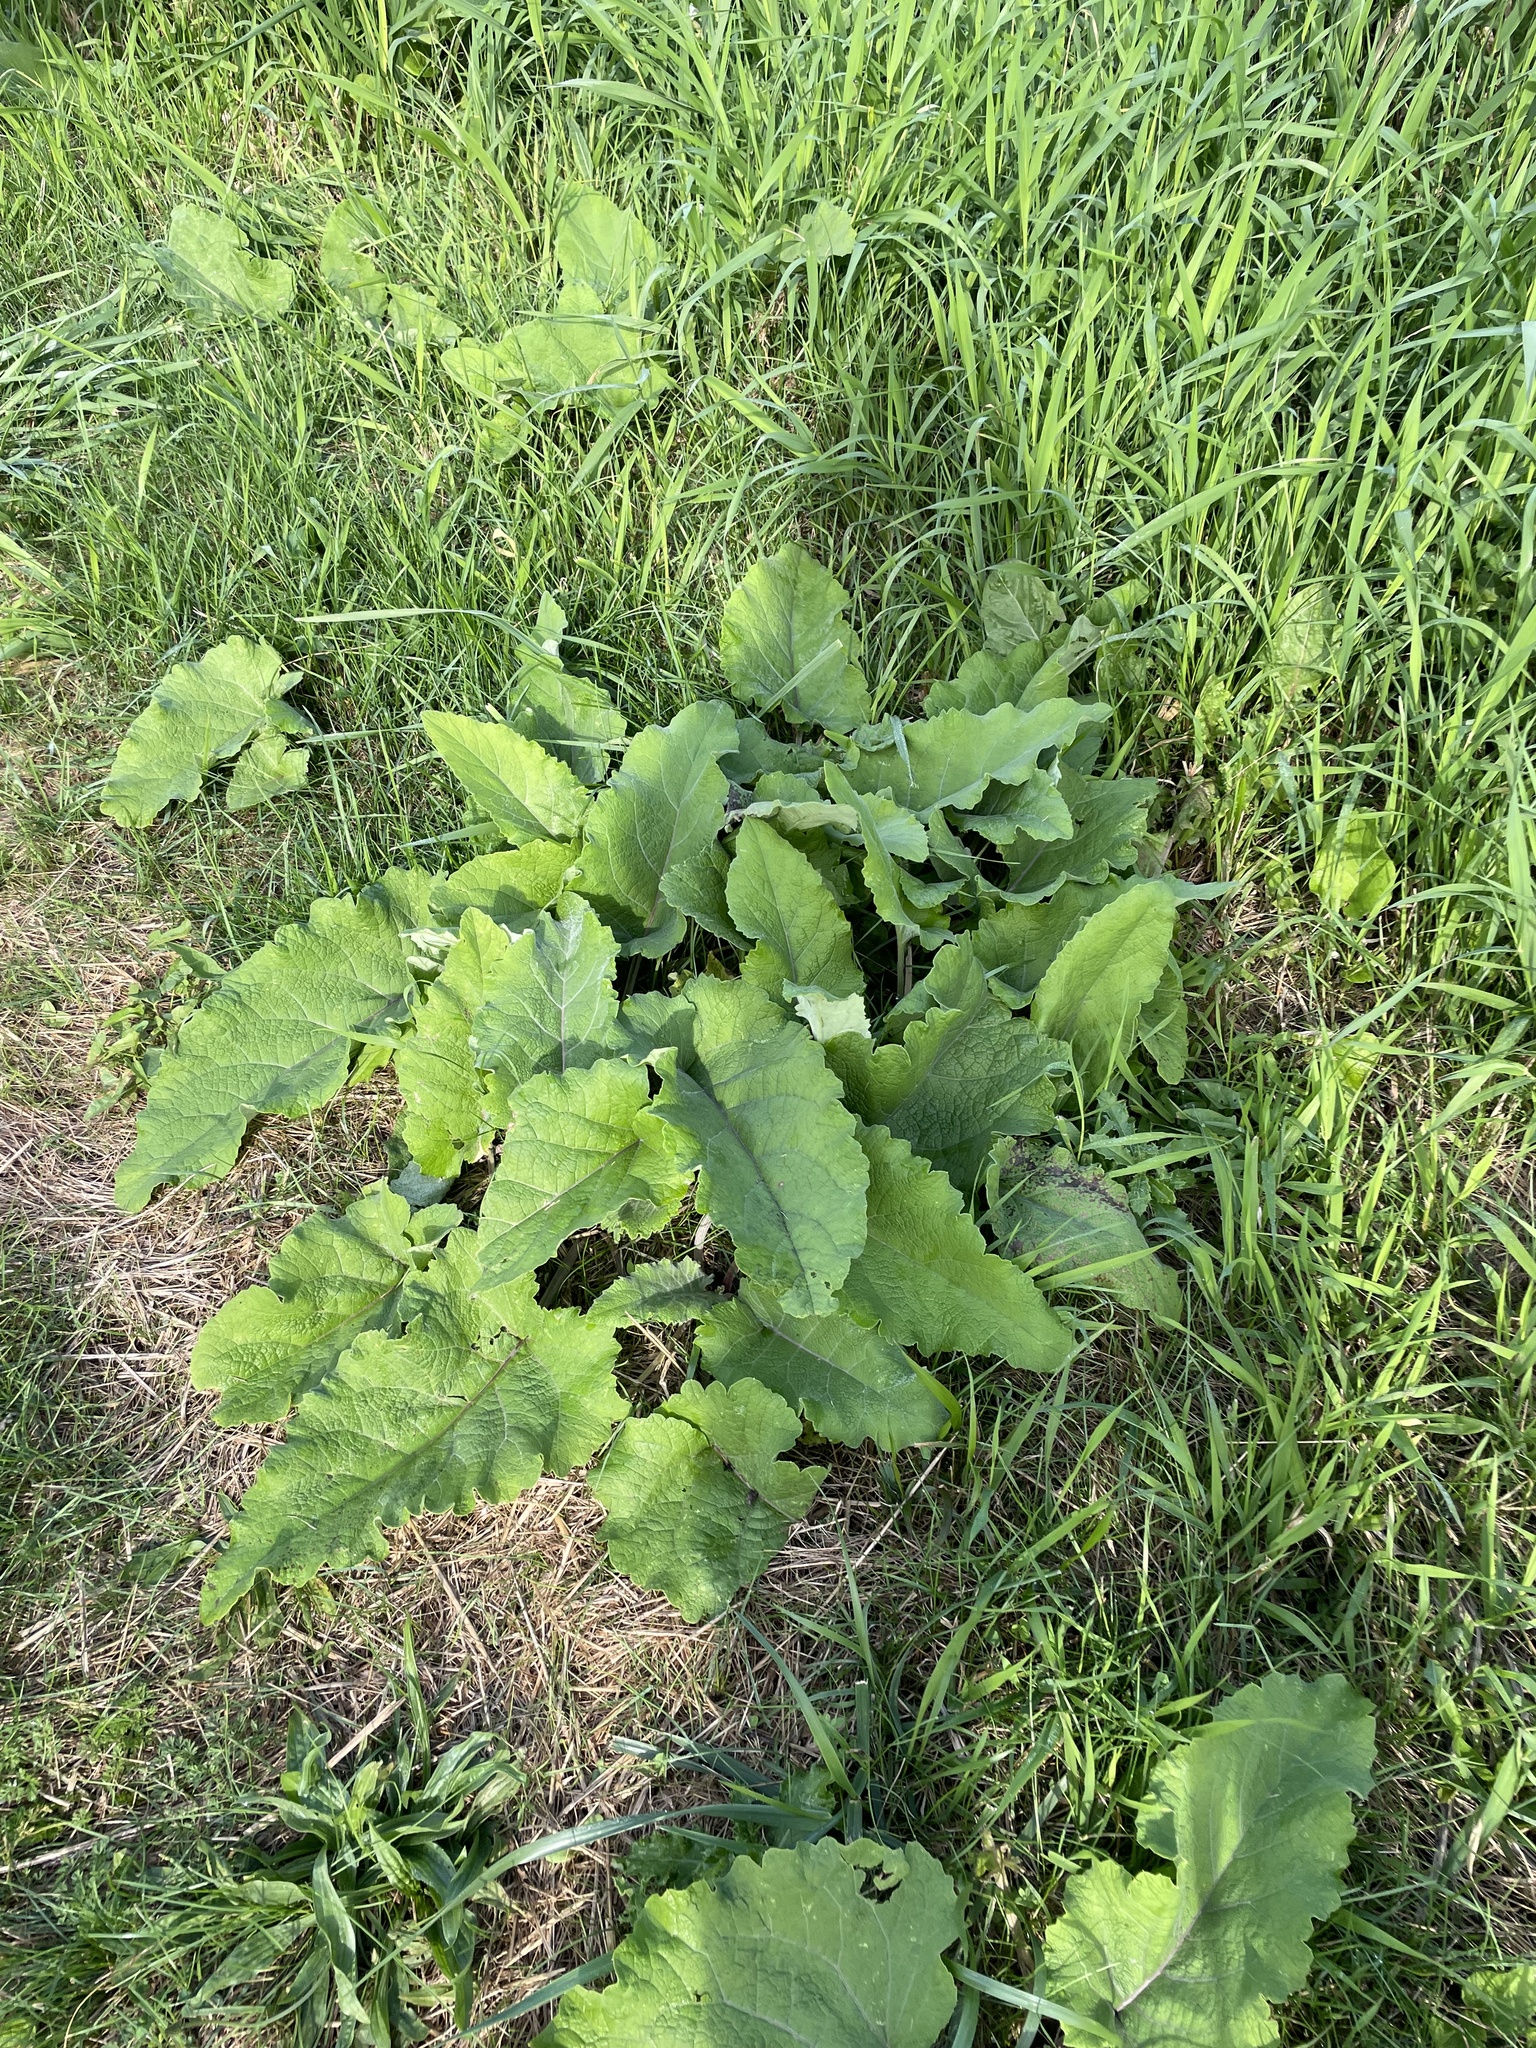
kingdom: Plantae
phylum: Tracheophyta
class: Magnoliopsida
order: Asterales
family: Asteraceae
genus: Arctium
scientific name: Arctium
